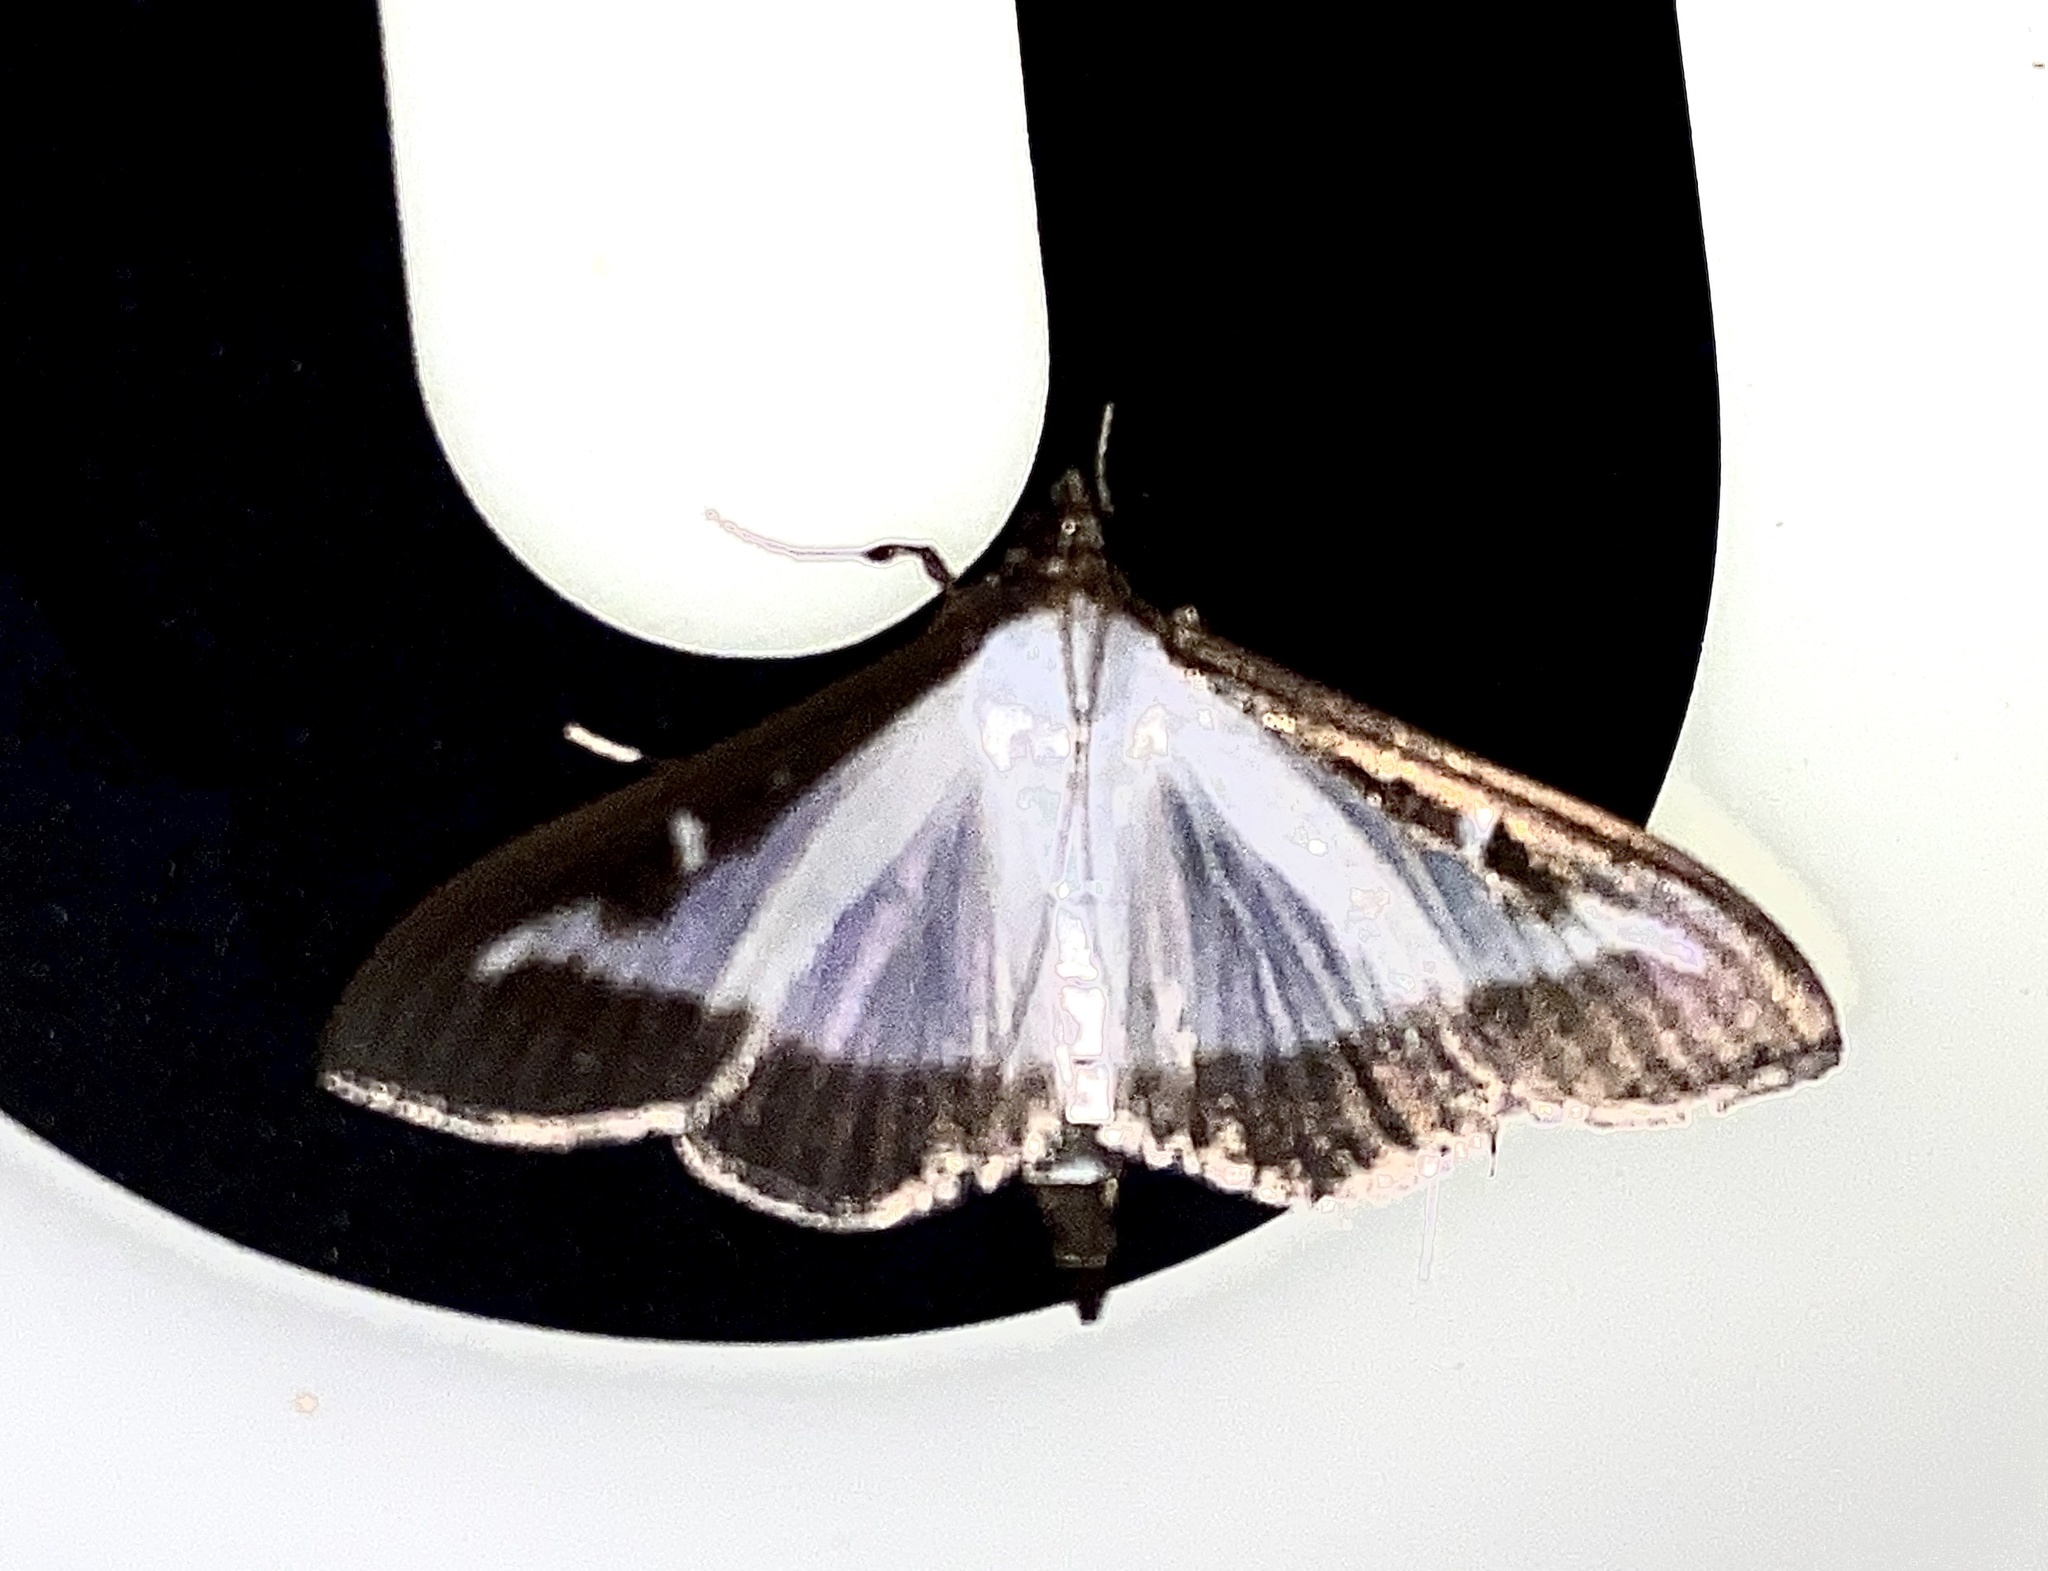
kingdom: Animalia
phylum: Arthropoda
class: Insecta
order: Lepidoptera
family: Crambidae
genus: Cydalima
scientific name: Cydalima perspectalis
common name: Box tree moth
